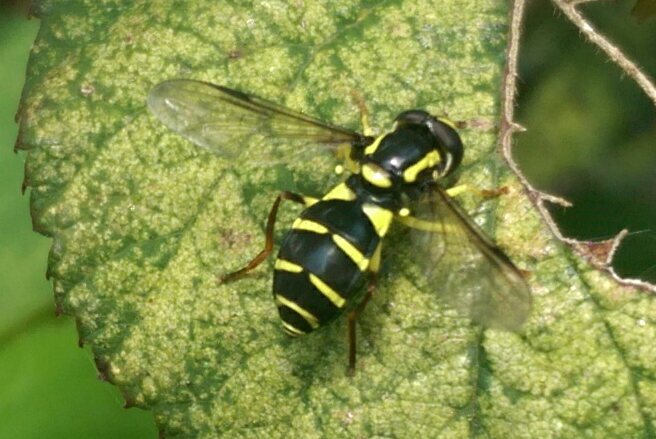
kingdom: Animalia
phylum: Arthropoda
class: Insecta
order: Diptera
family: Syrphidae
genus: Xanthogramma
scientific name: Xanthogramma
